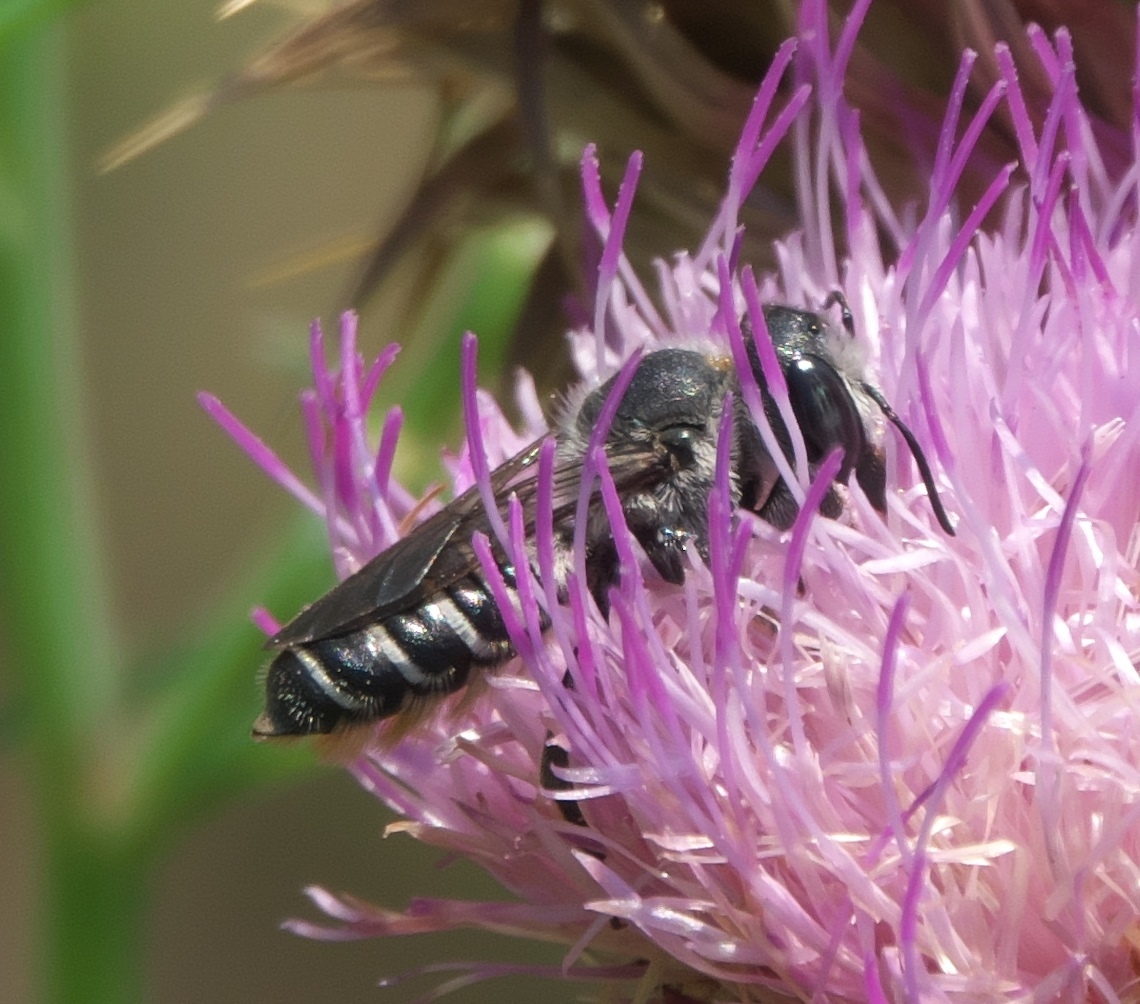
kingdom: Animalia
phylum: Arthropoda
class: Insecta
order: Hymenoptera
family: Megachilidae
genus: Megachile
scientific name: Megachile montivaga
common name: Silver-tailed petalcutter bee
